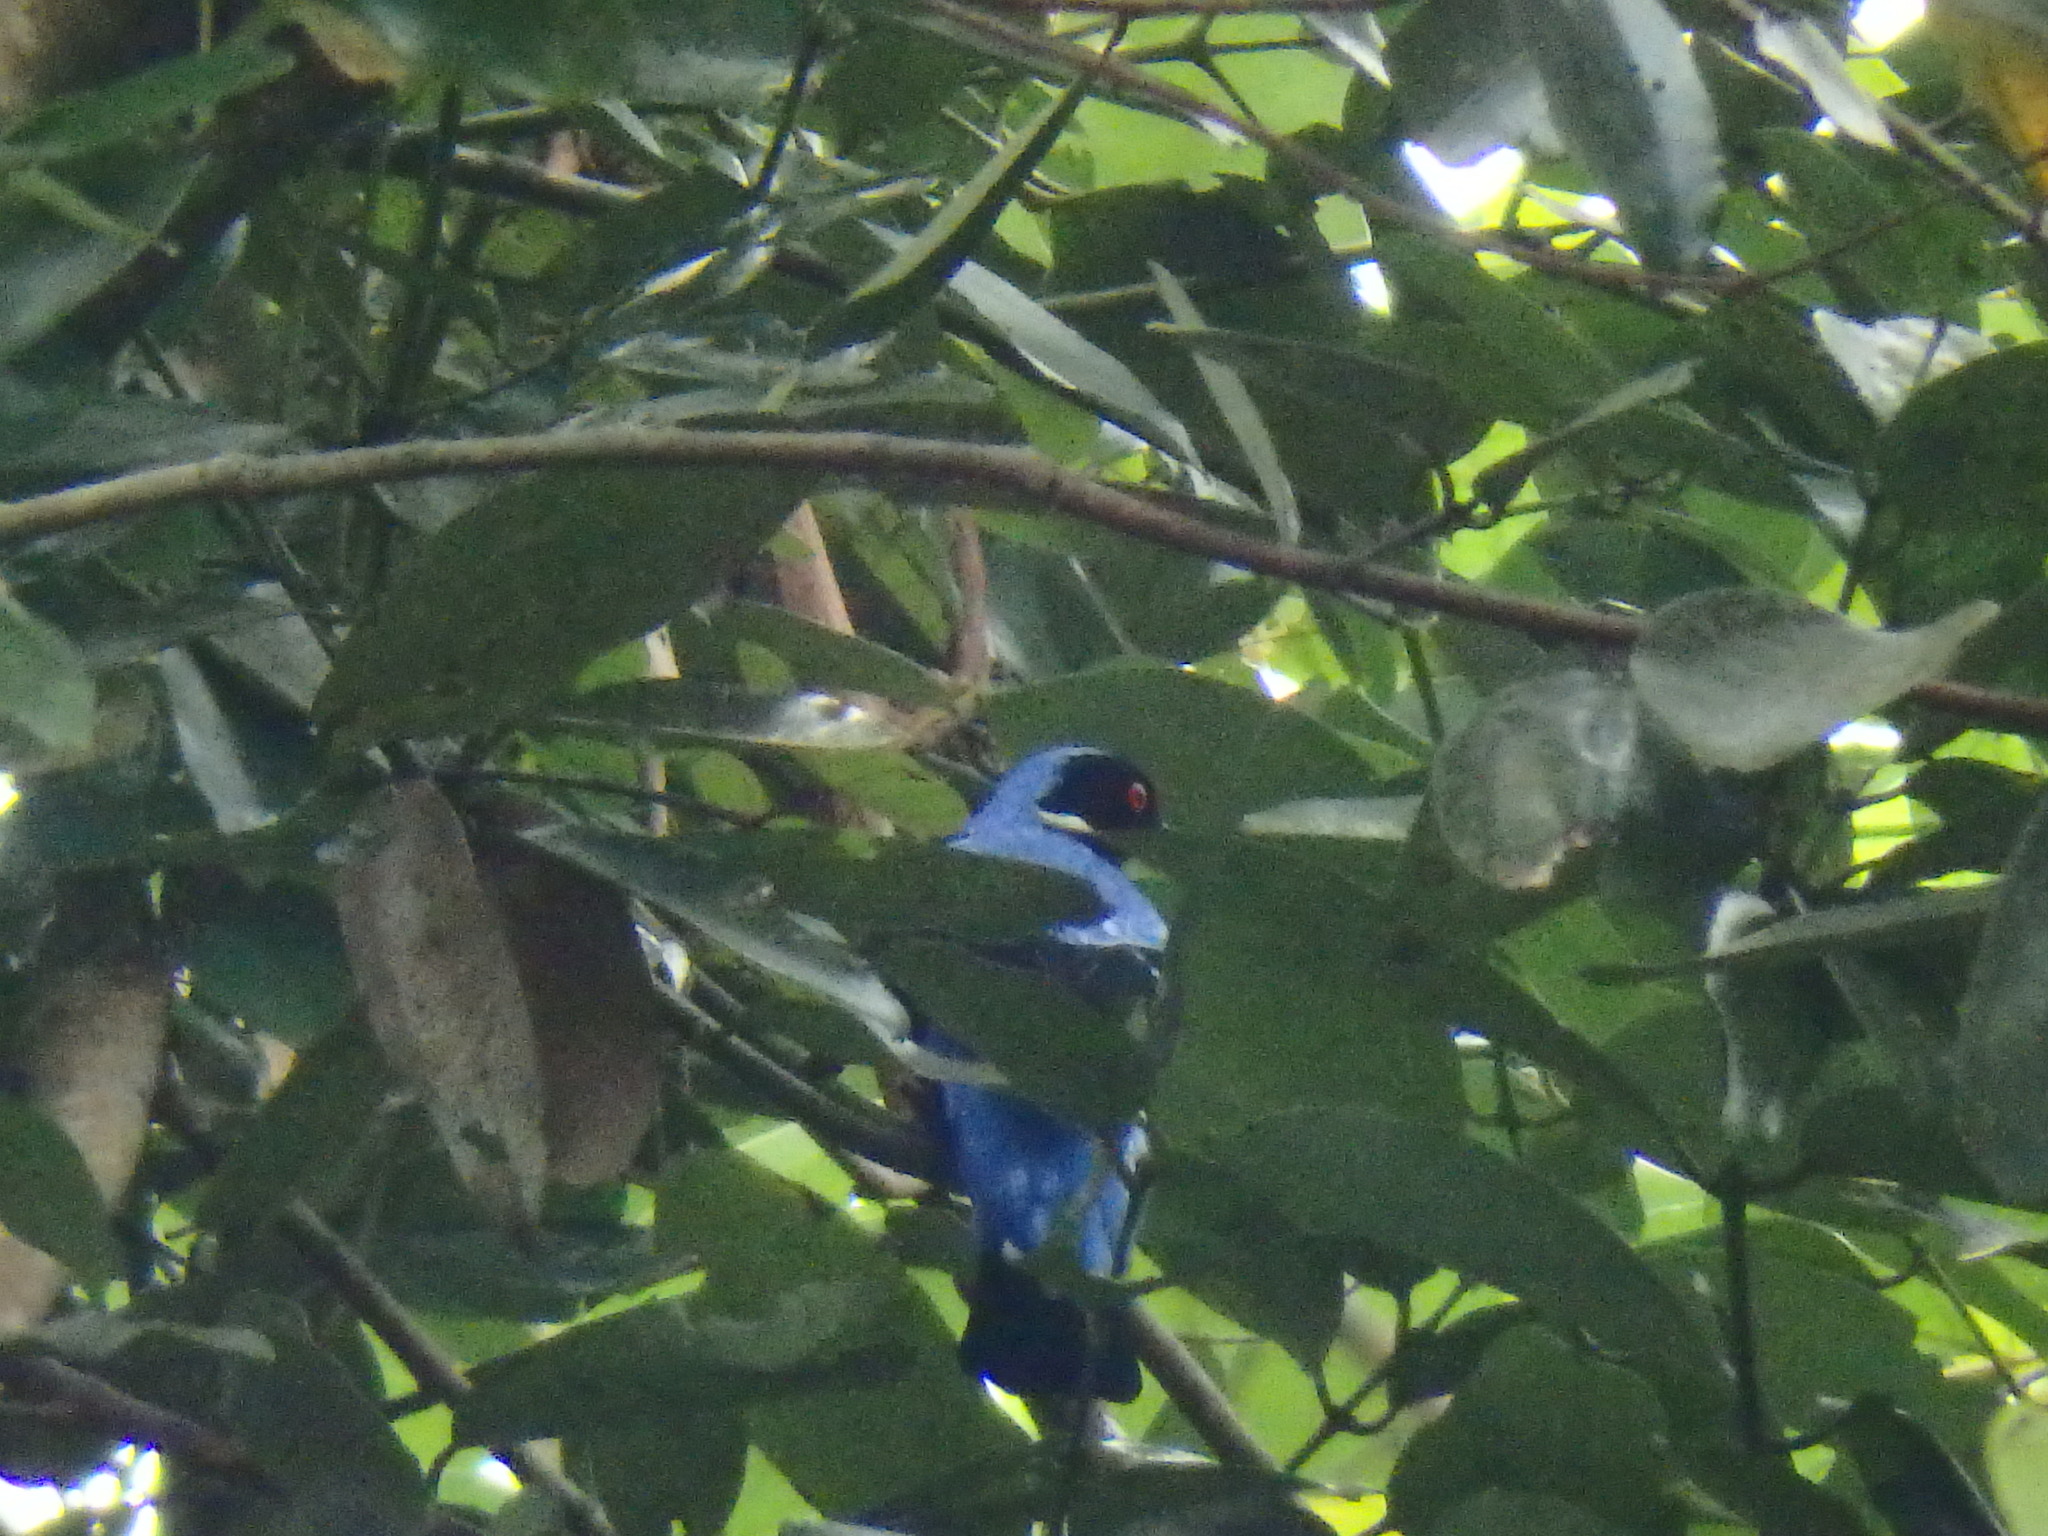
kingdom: Animalia
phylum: Chordata
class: Aves
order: Passeriformes
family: Irenidae
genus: Irena
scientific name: Irena puella
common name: Asian fairy-bluebird
